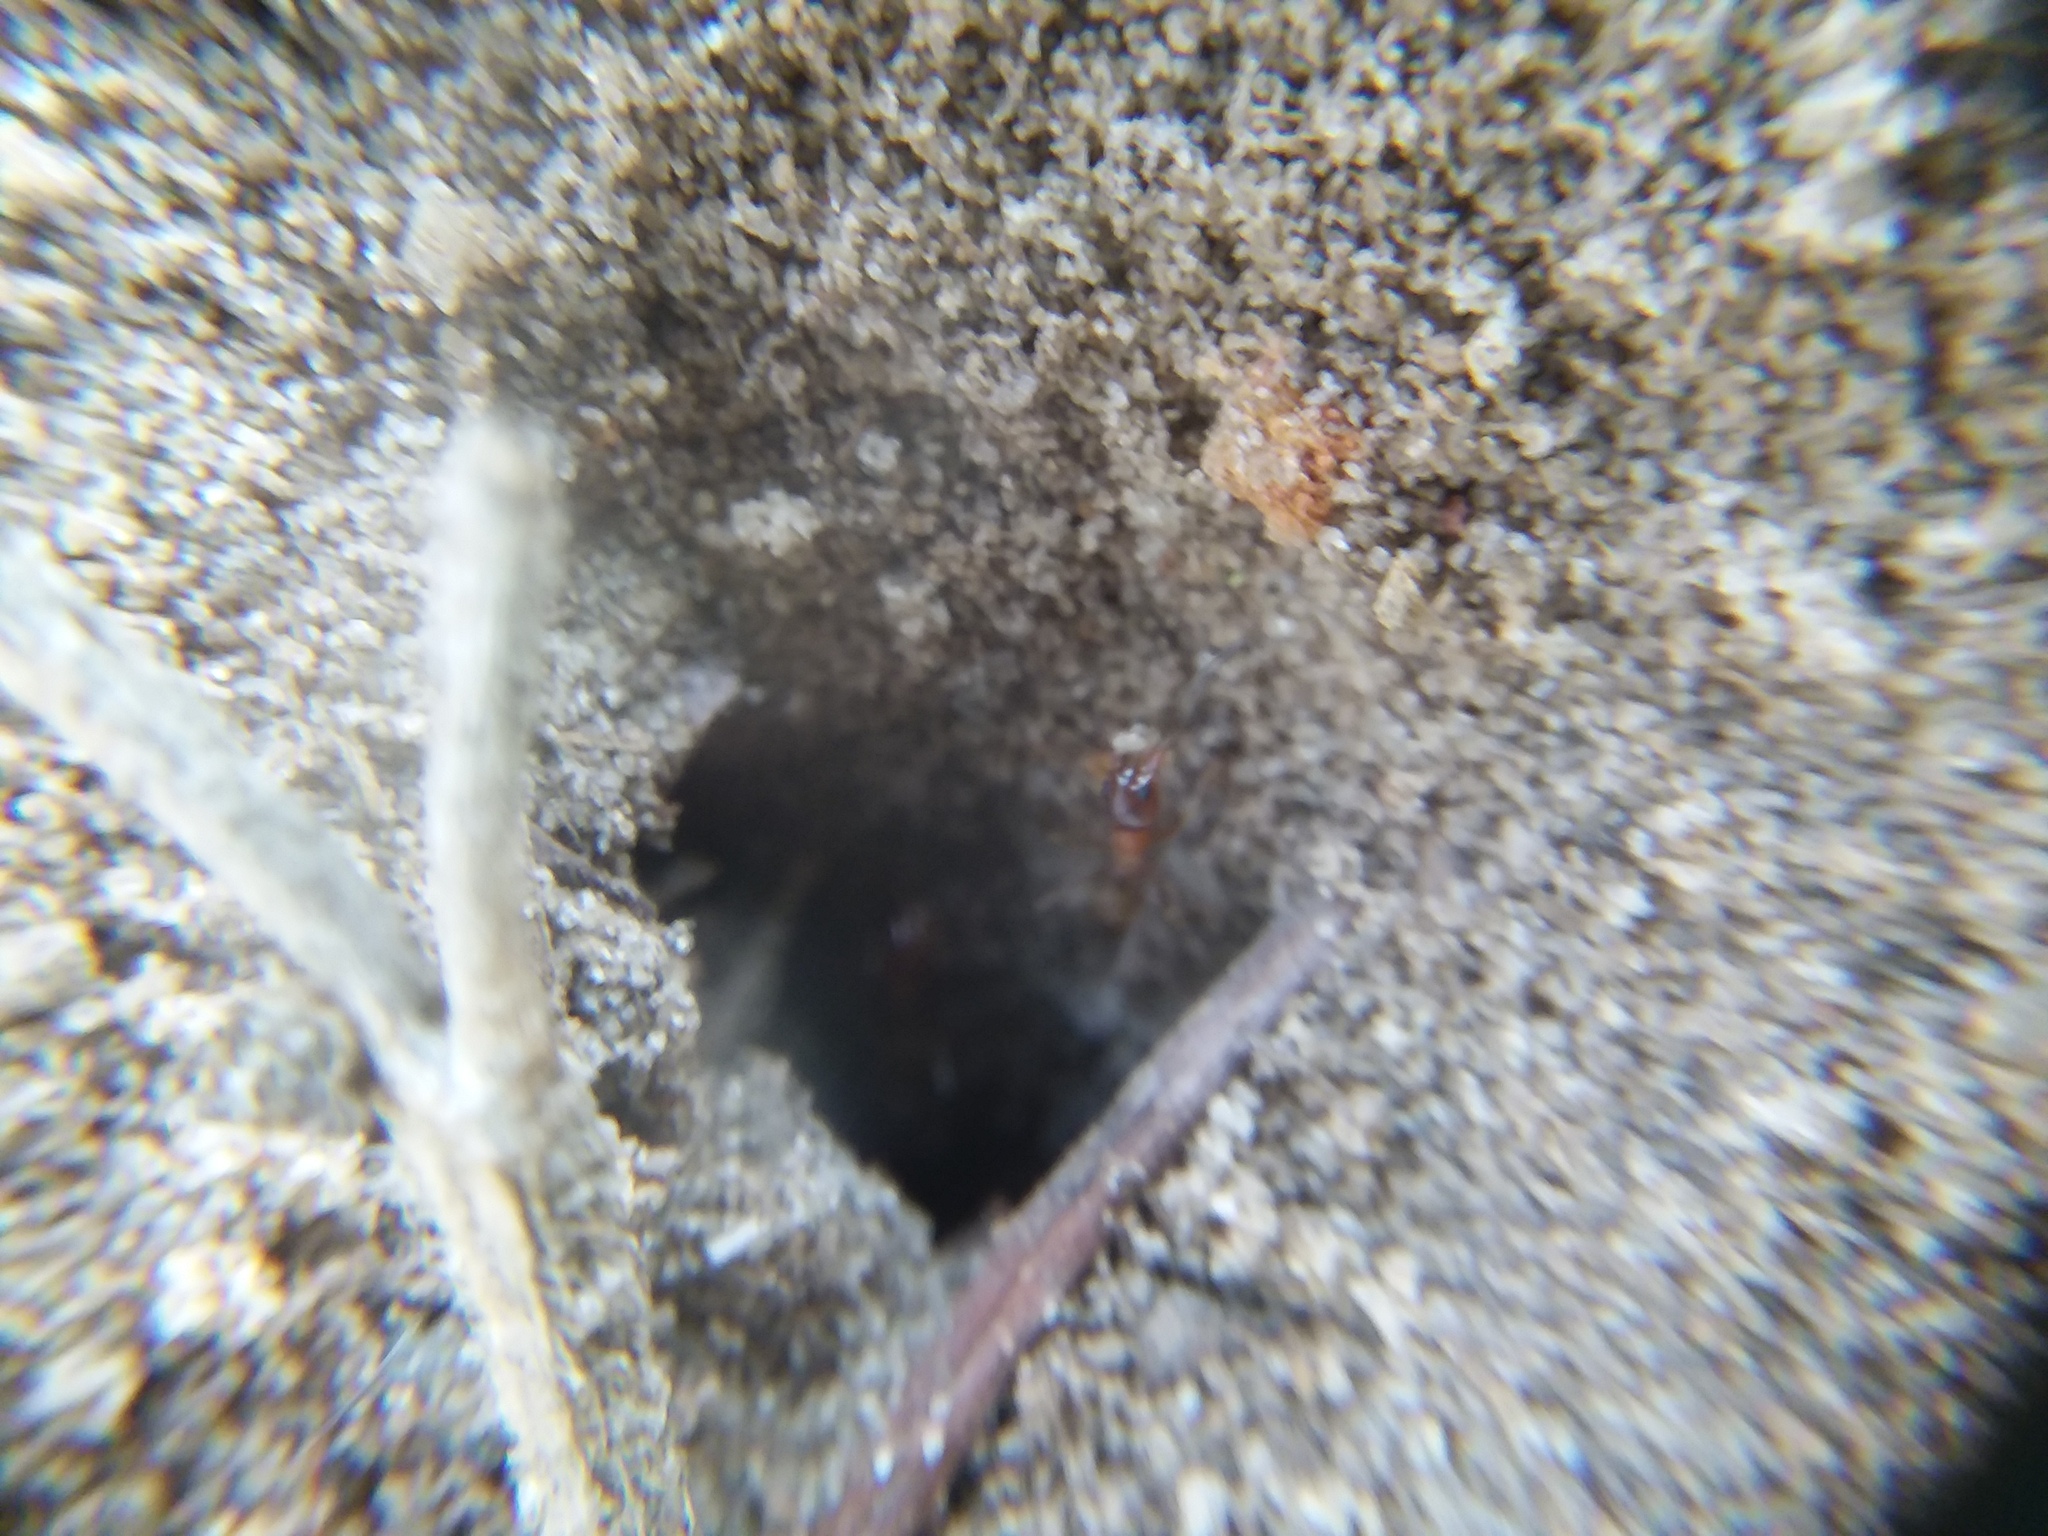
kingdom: Animalia
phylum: Arthropoda
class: Insecta
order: Hymenoptera
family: Formicidae
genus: Dorymyrmex
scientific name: Dorymyrmex bureni
